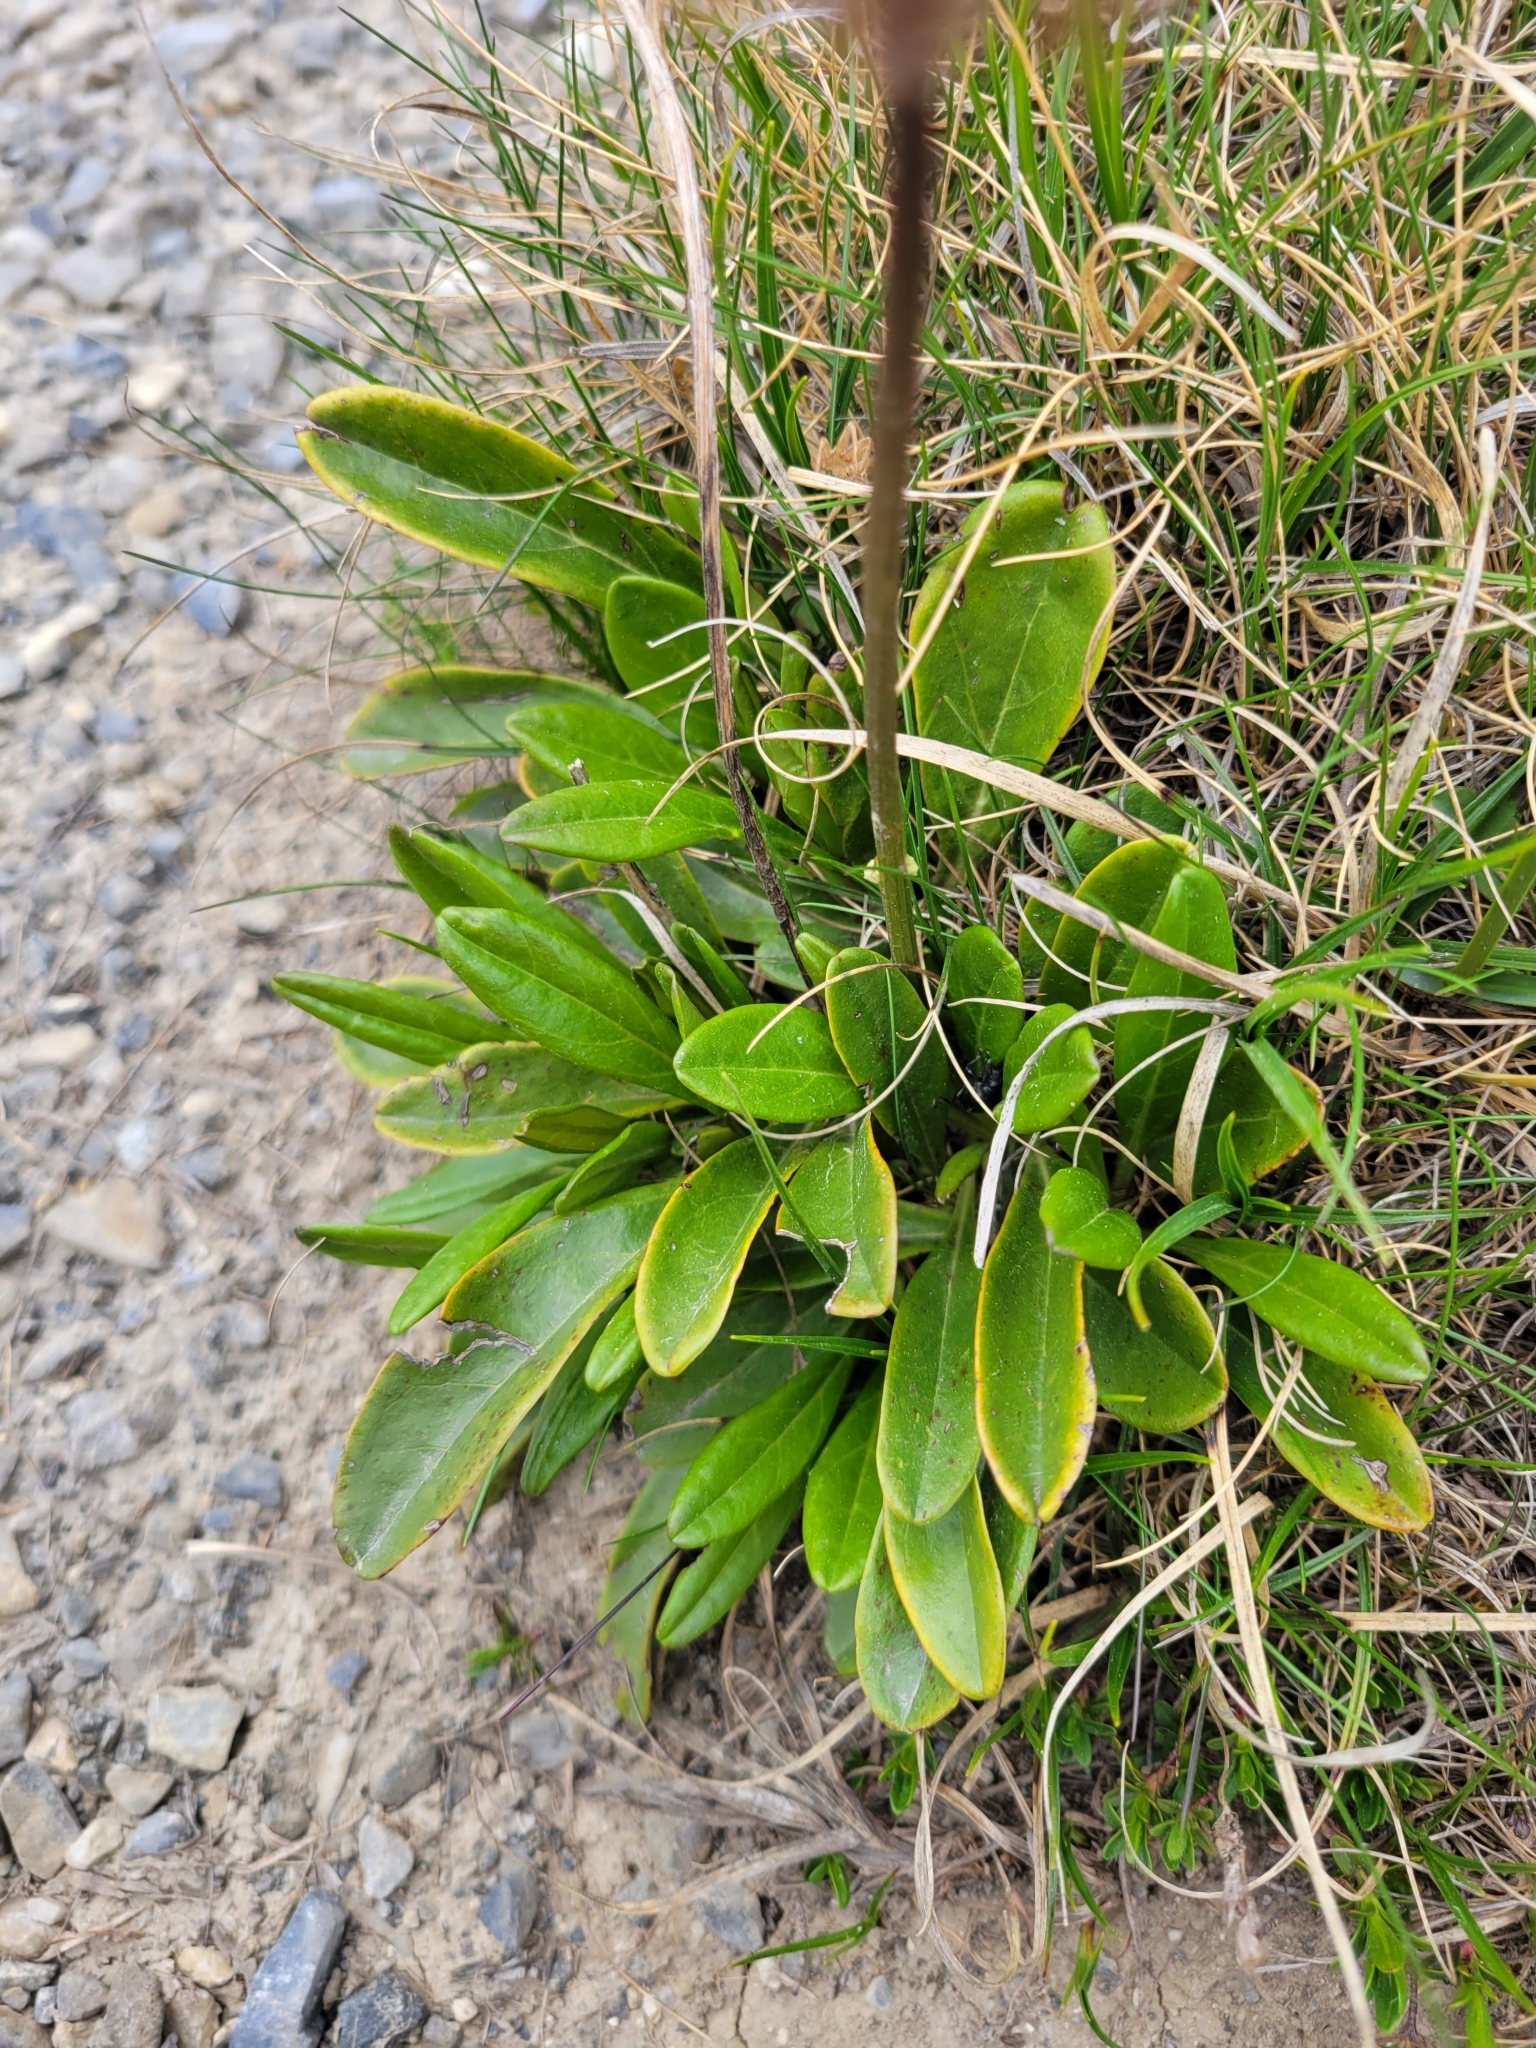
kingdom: Plantae
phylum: Tracheophyta
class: Magnoliopsida
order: Lamiales
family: Plantaginaceae
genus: Globularia
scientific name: Globularia nudicaulis
